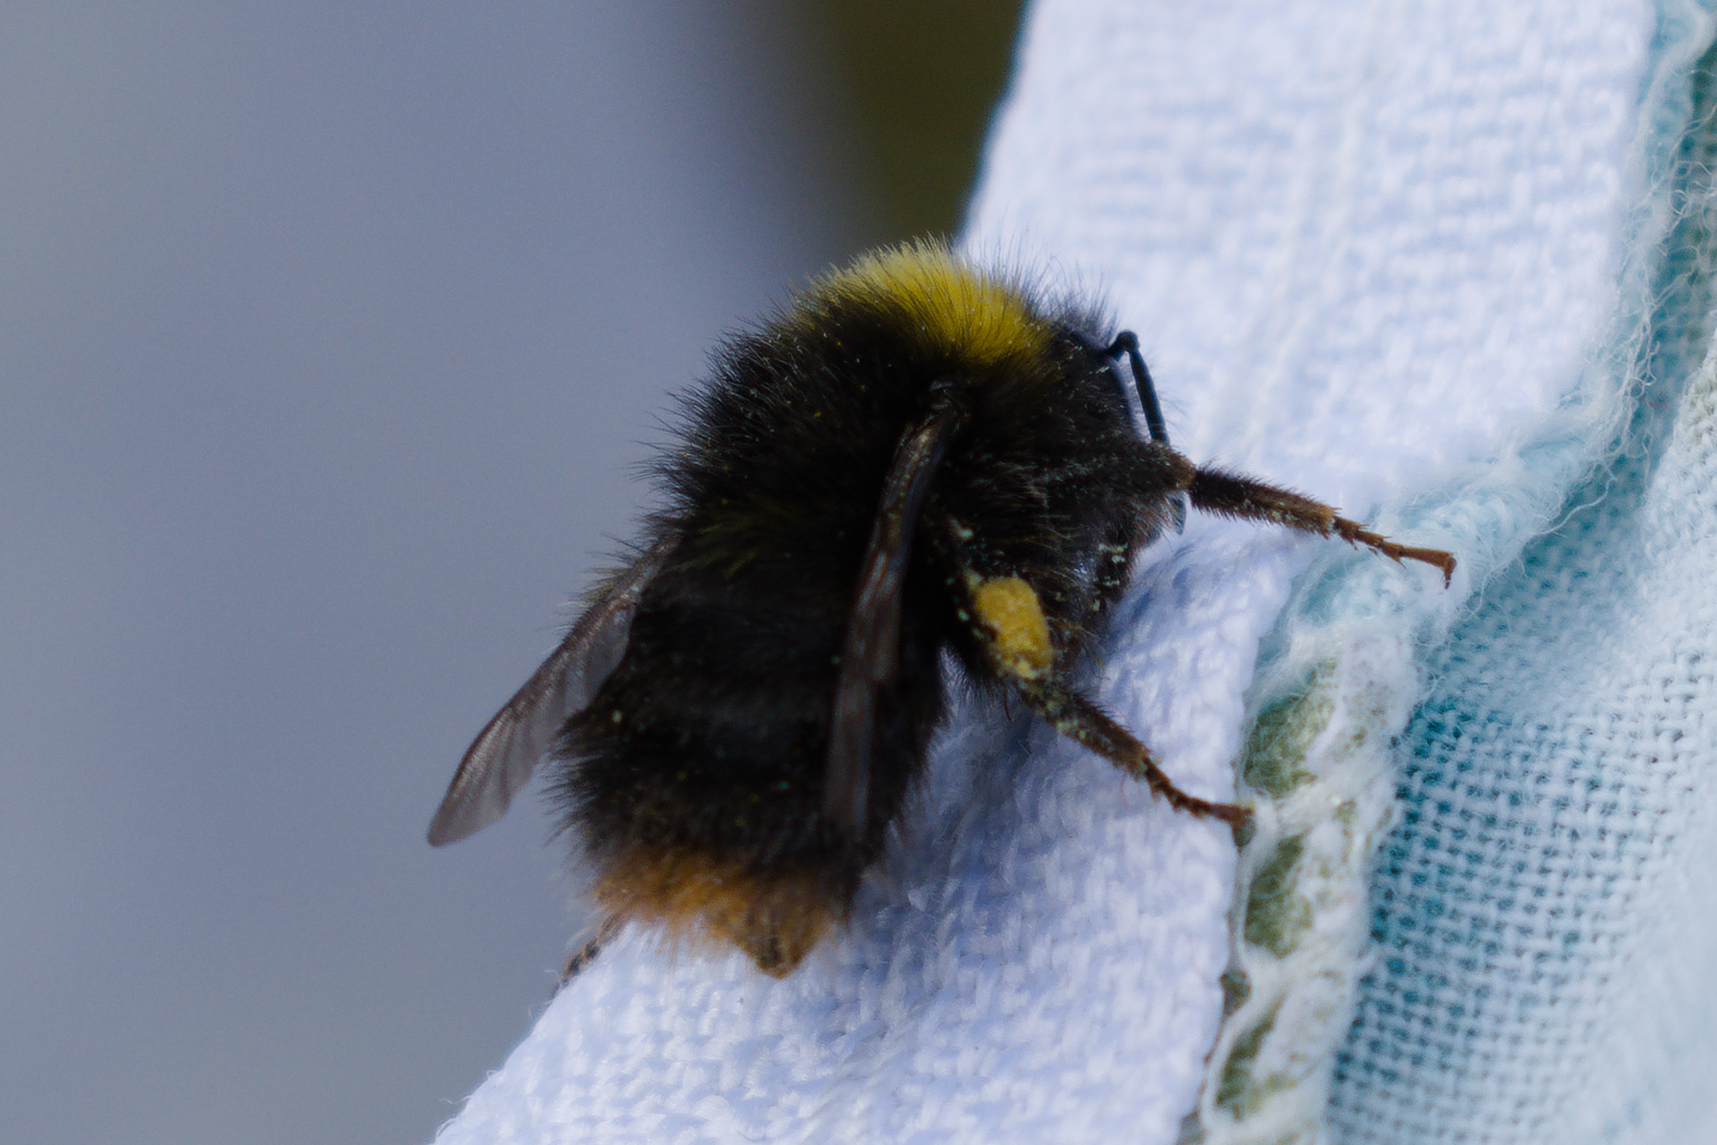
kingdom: Animalia
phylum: Arthropoda
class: Insecta
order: Hymenoptera
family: Apidae
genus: Bombus
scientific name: Bombus pratorum
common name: Early humble-bee
